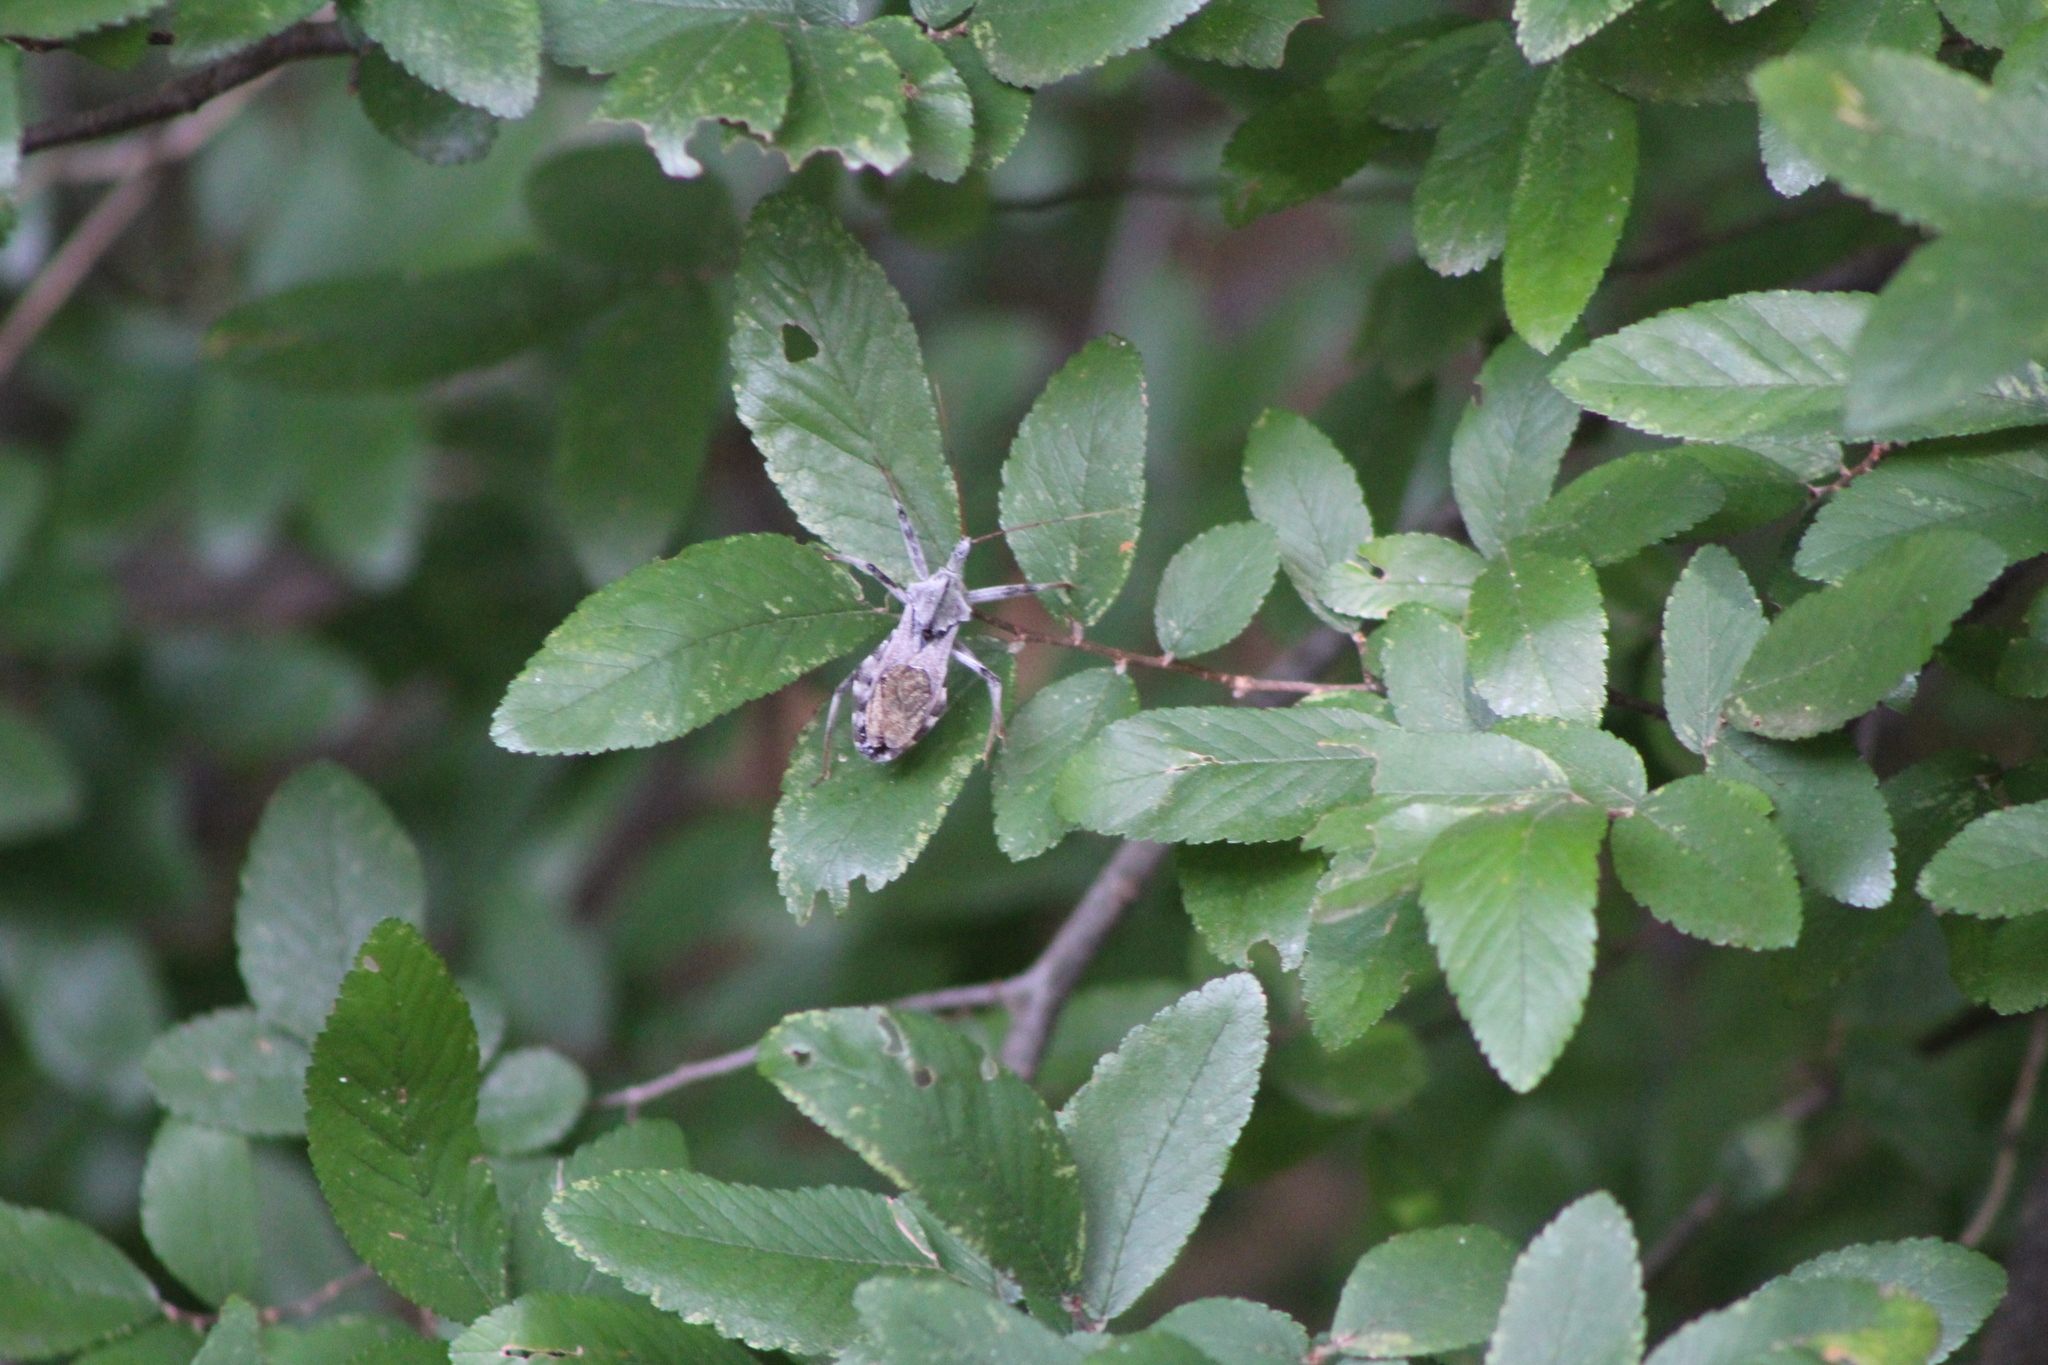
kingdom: Animalia
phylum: Arthropoda
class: Insecta
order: Hemiptera
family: Reduviidae
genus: Arilus
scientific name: Arilus cristatus
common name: North american wheel bug
